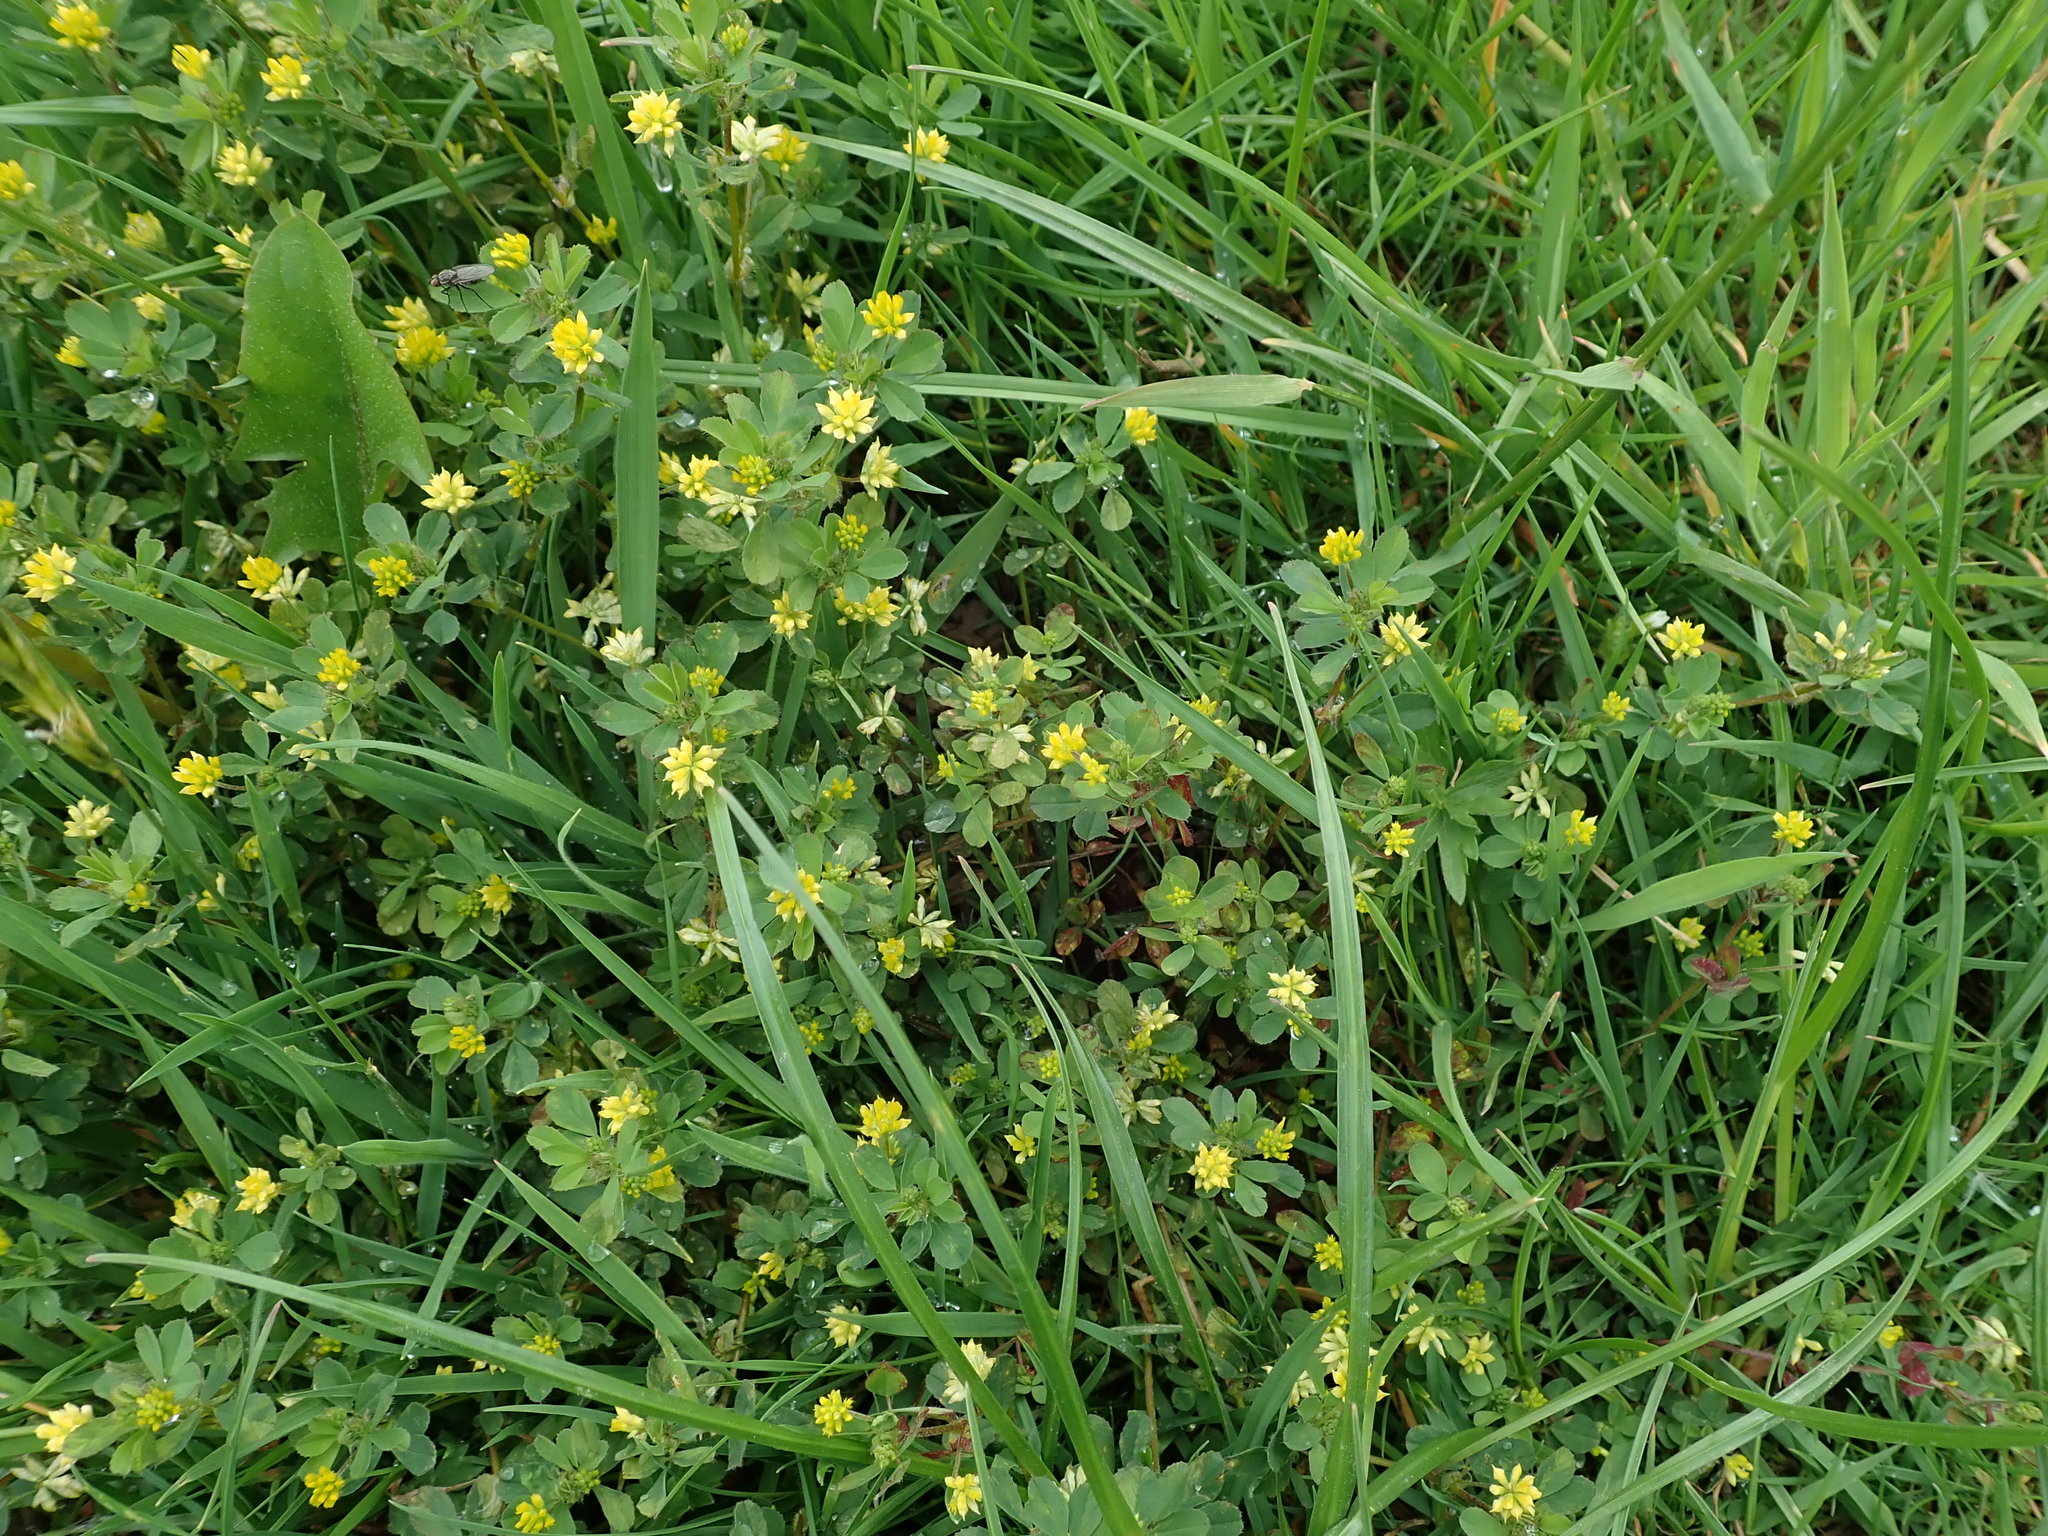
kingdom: Plantae
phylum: Tracheophyta
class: Magnoliopsida
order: Fabales
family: Fabaceae
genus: Trifolium
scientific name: Trifolium dubium
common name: Suckling clover
